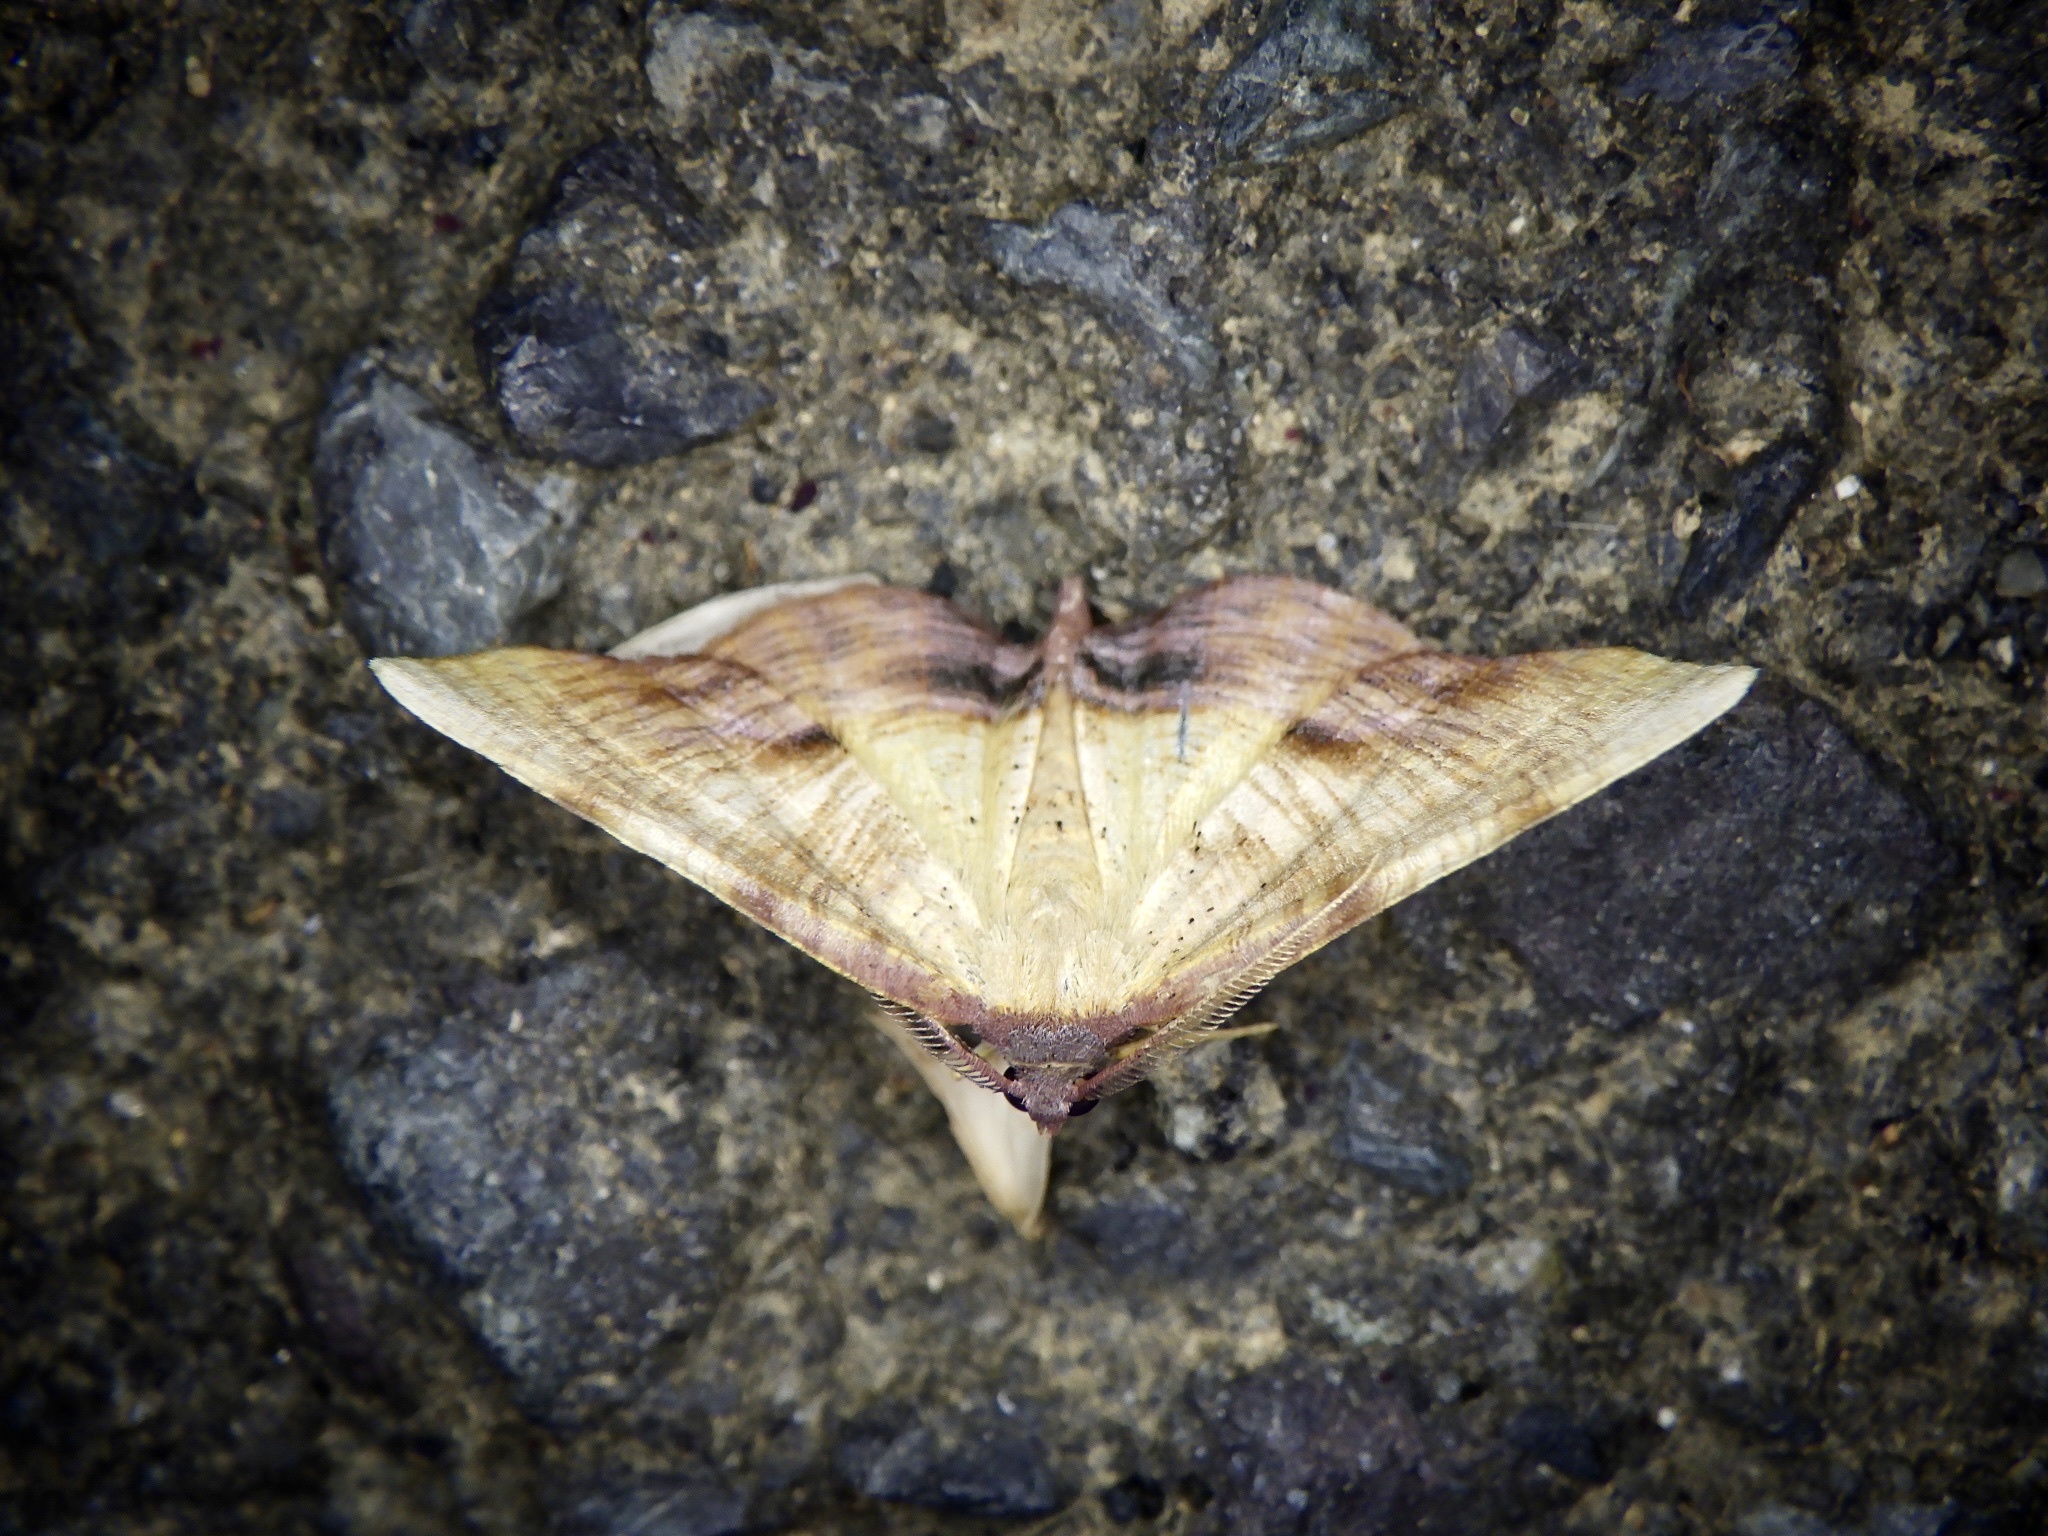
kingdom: Animalia
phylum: Arthropoda
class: Insecta
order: Lepidoptera
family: Geometridae
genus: Plagodis
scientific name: Plagodis dolabraria
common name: Scorched wing
